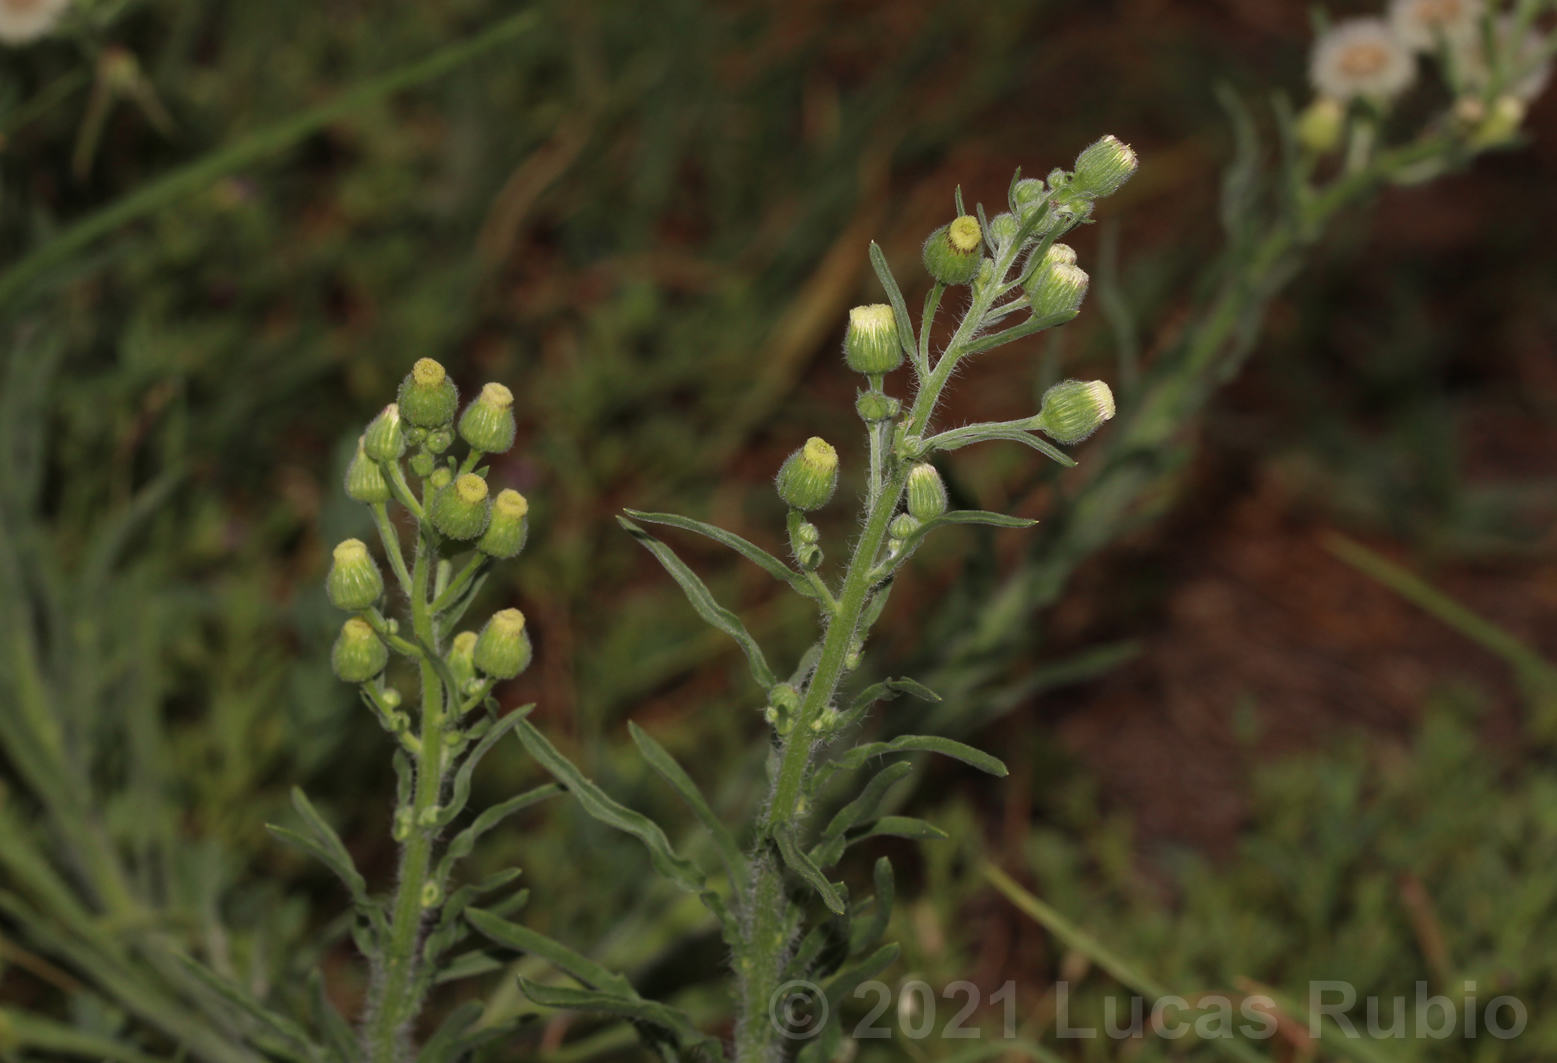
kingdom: Plantae
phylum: Tracheophyta
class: Magnoliopsida
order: Asterales
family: Asteraceae
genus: Erigeron
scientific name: Erigeron bonariensis
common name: Argentine fleabane
